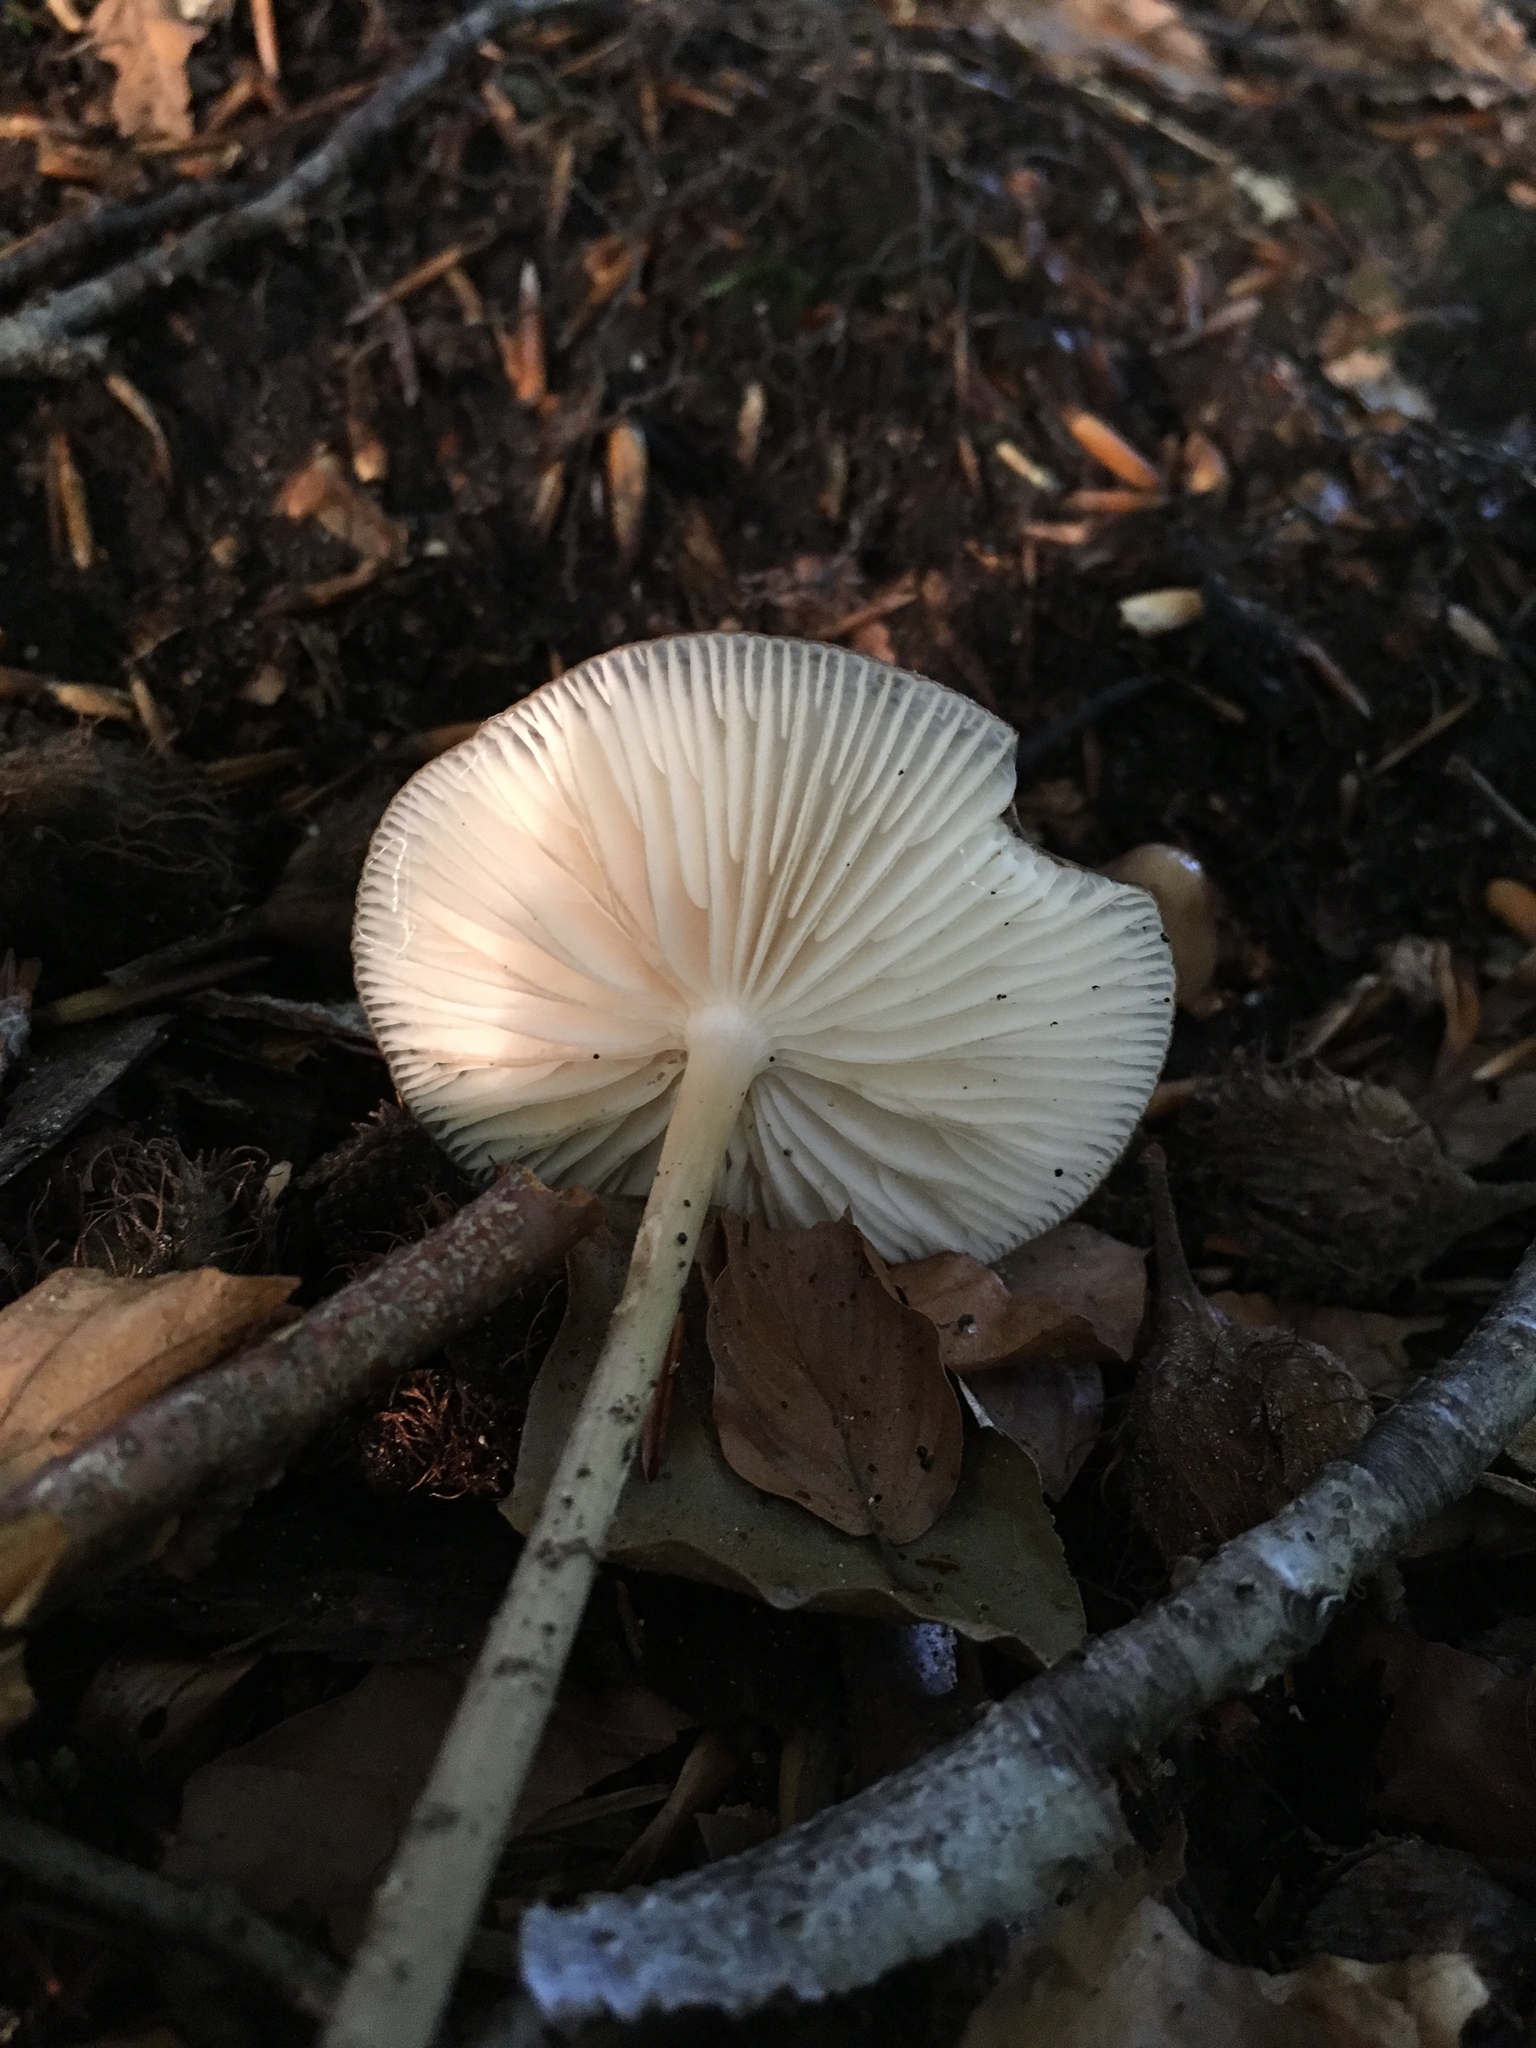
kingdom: Fungi
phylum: Basidiomycota
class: Agaricomycetes
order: Agaricales
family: Physalacriaceae
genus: Hymenopellis
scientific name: Hymenopellis radicata
